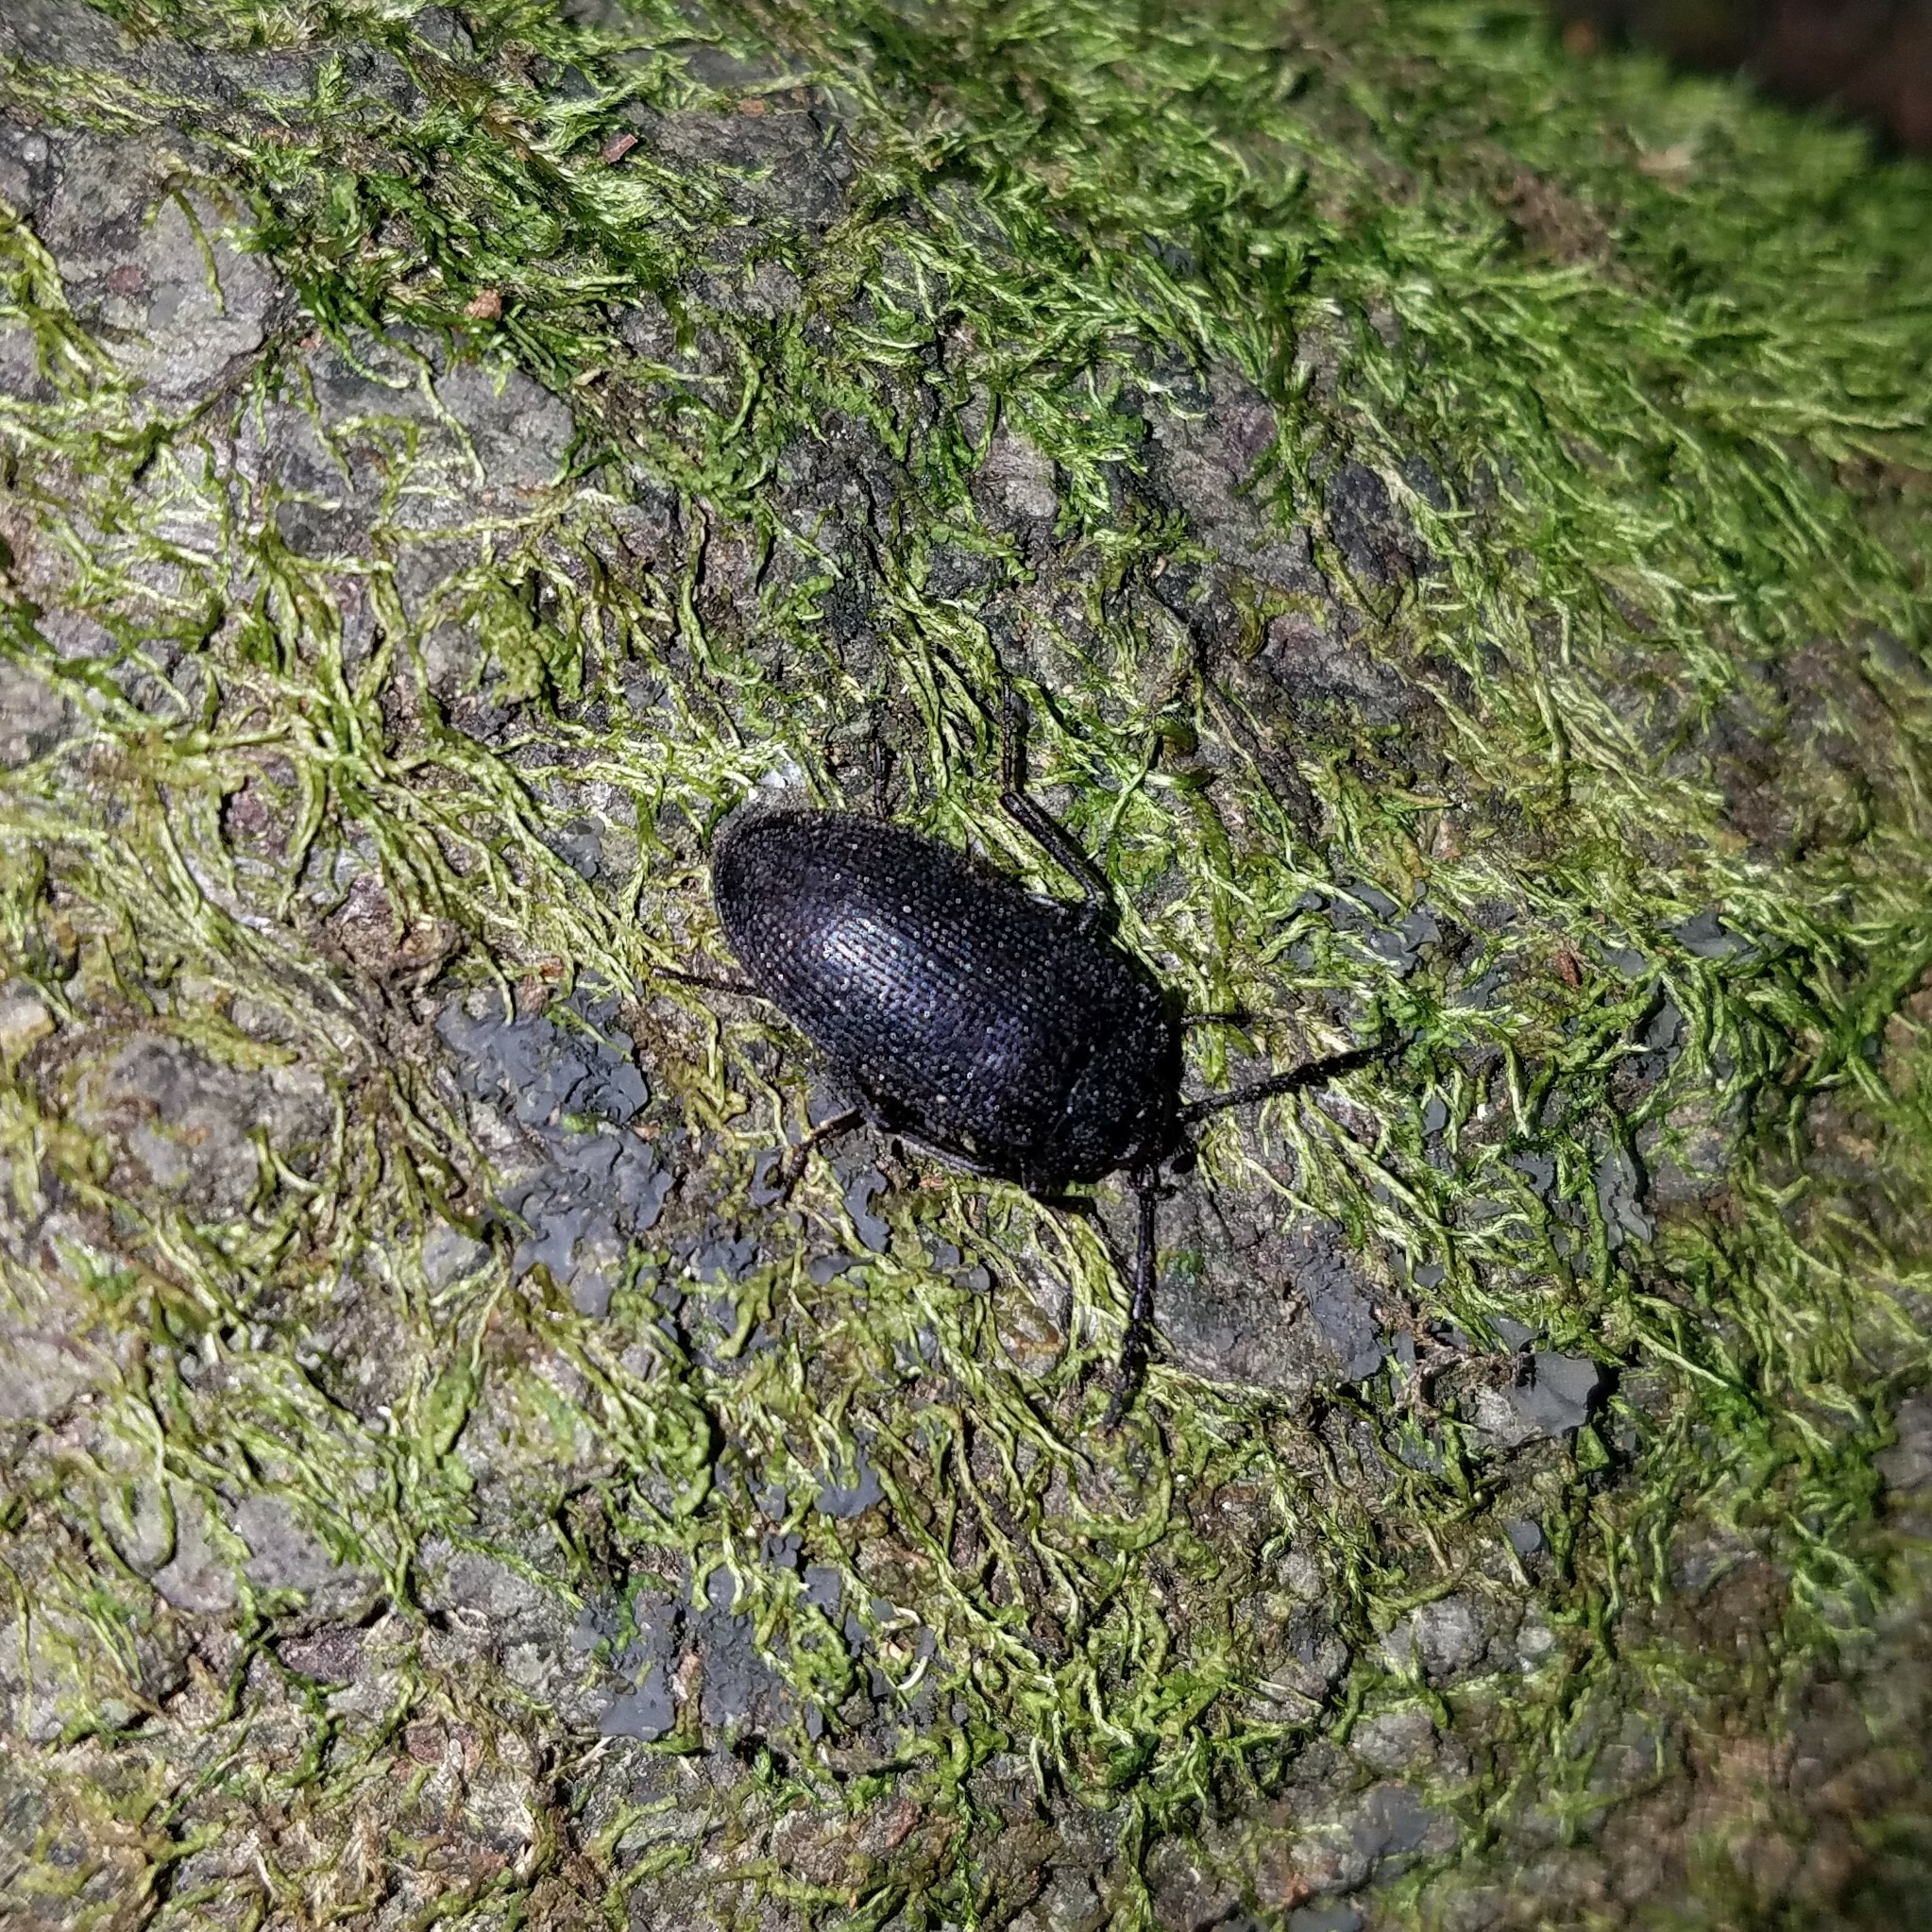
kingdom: Animalia
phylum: Arthropoda
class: Insecta
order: Coleoptera
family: Tetratomidae
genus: Penthe
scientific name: Penthe pimelia
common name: Velvety bark beetle
